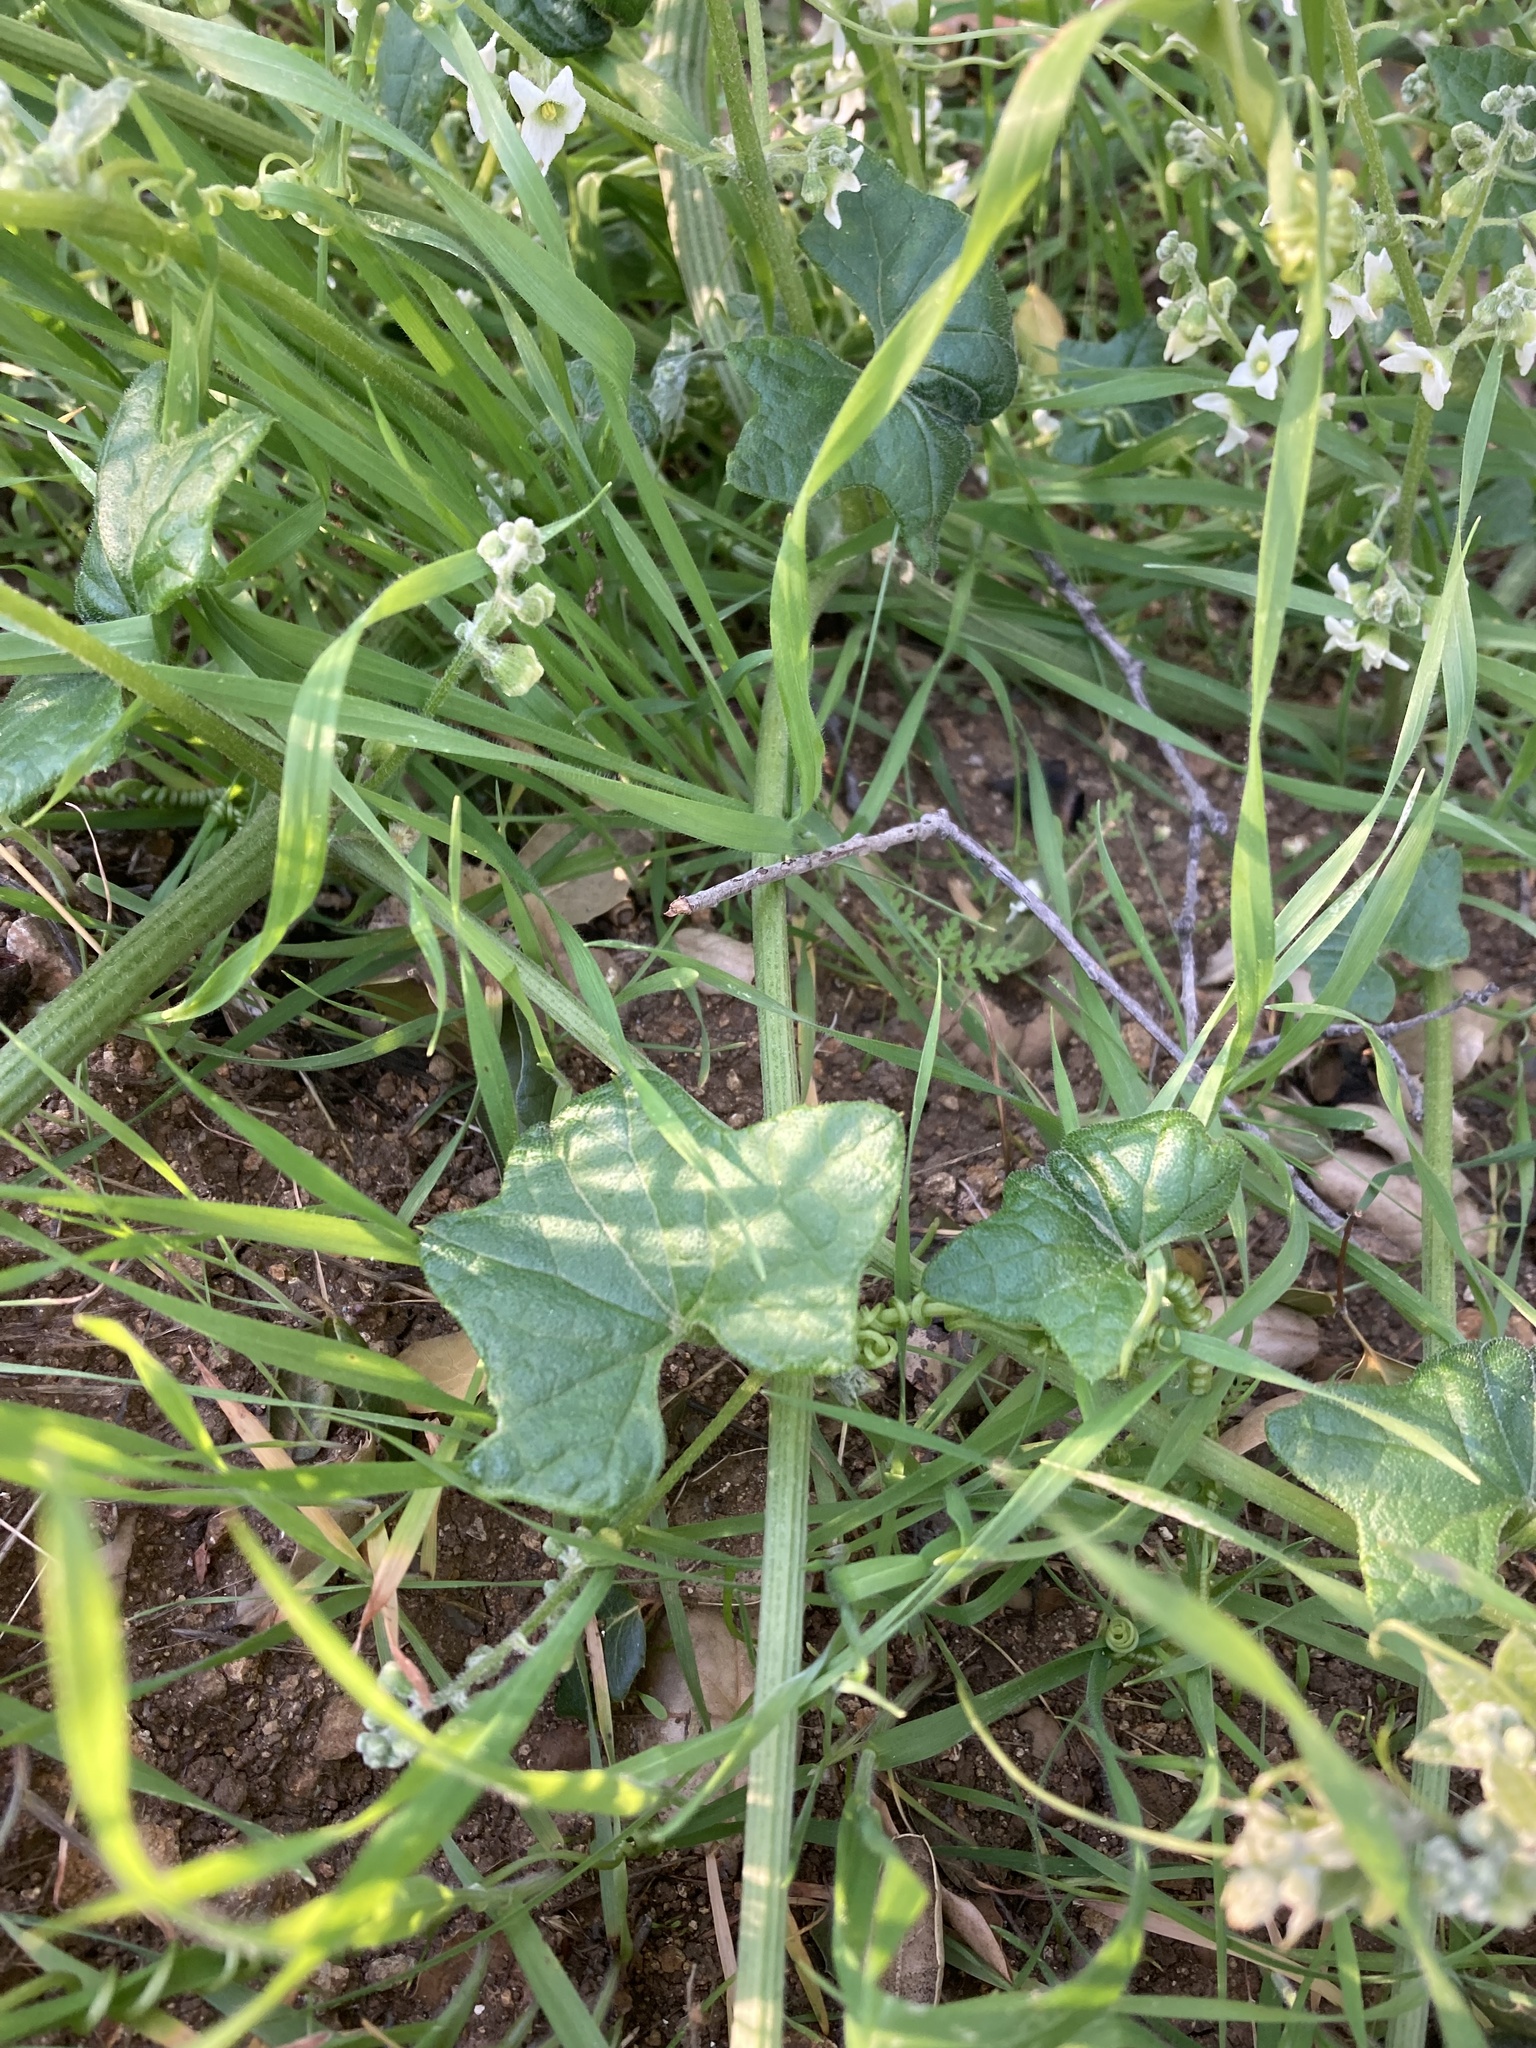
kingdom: Plantae
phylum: Tracheophyta
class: Magnoliopsida
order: Cucurbitales
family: Cucurbitaceae
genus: Marah
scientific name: Marah macrocarpa
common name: Cucamonga manroot
